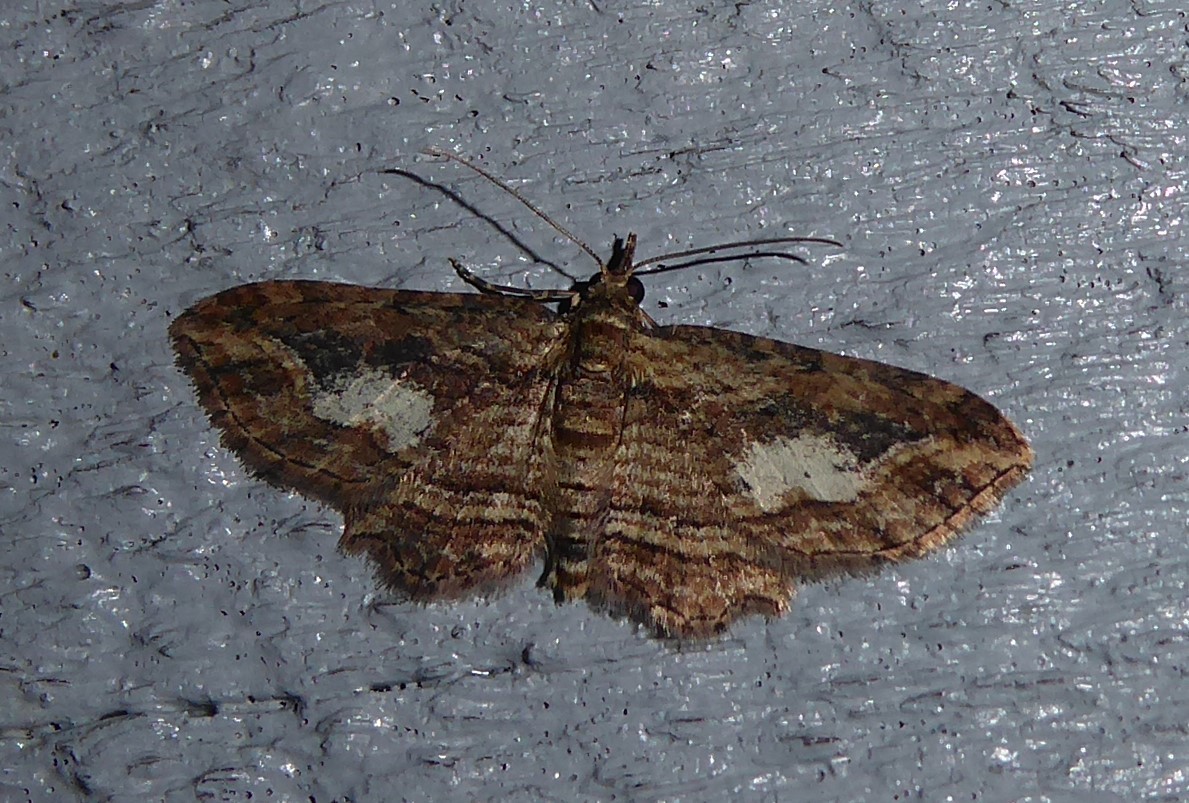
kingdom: Animalia
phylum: Arthropoda
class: Insecta
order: Lepidoptera
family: Geometridae
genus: Chloroclystis
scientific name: Chloroclystis filata
